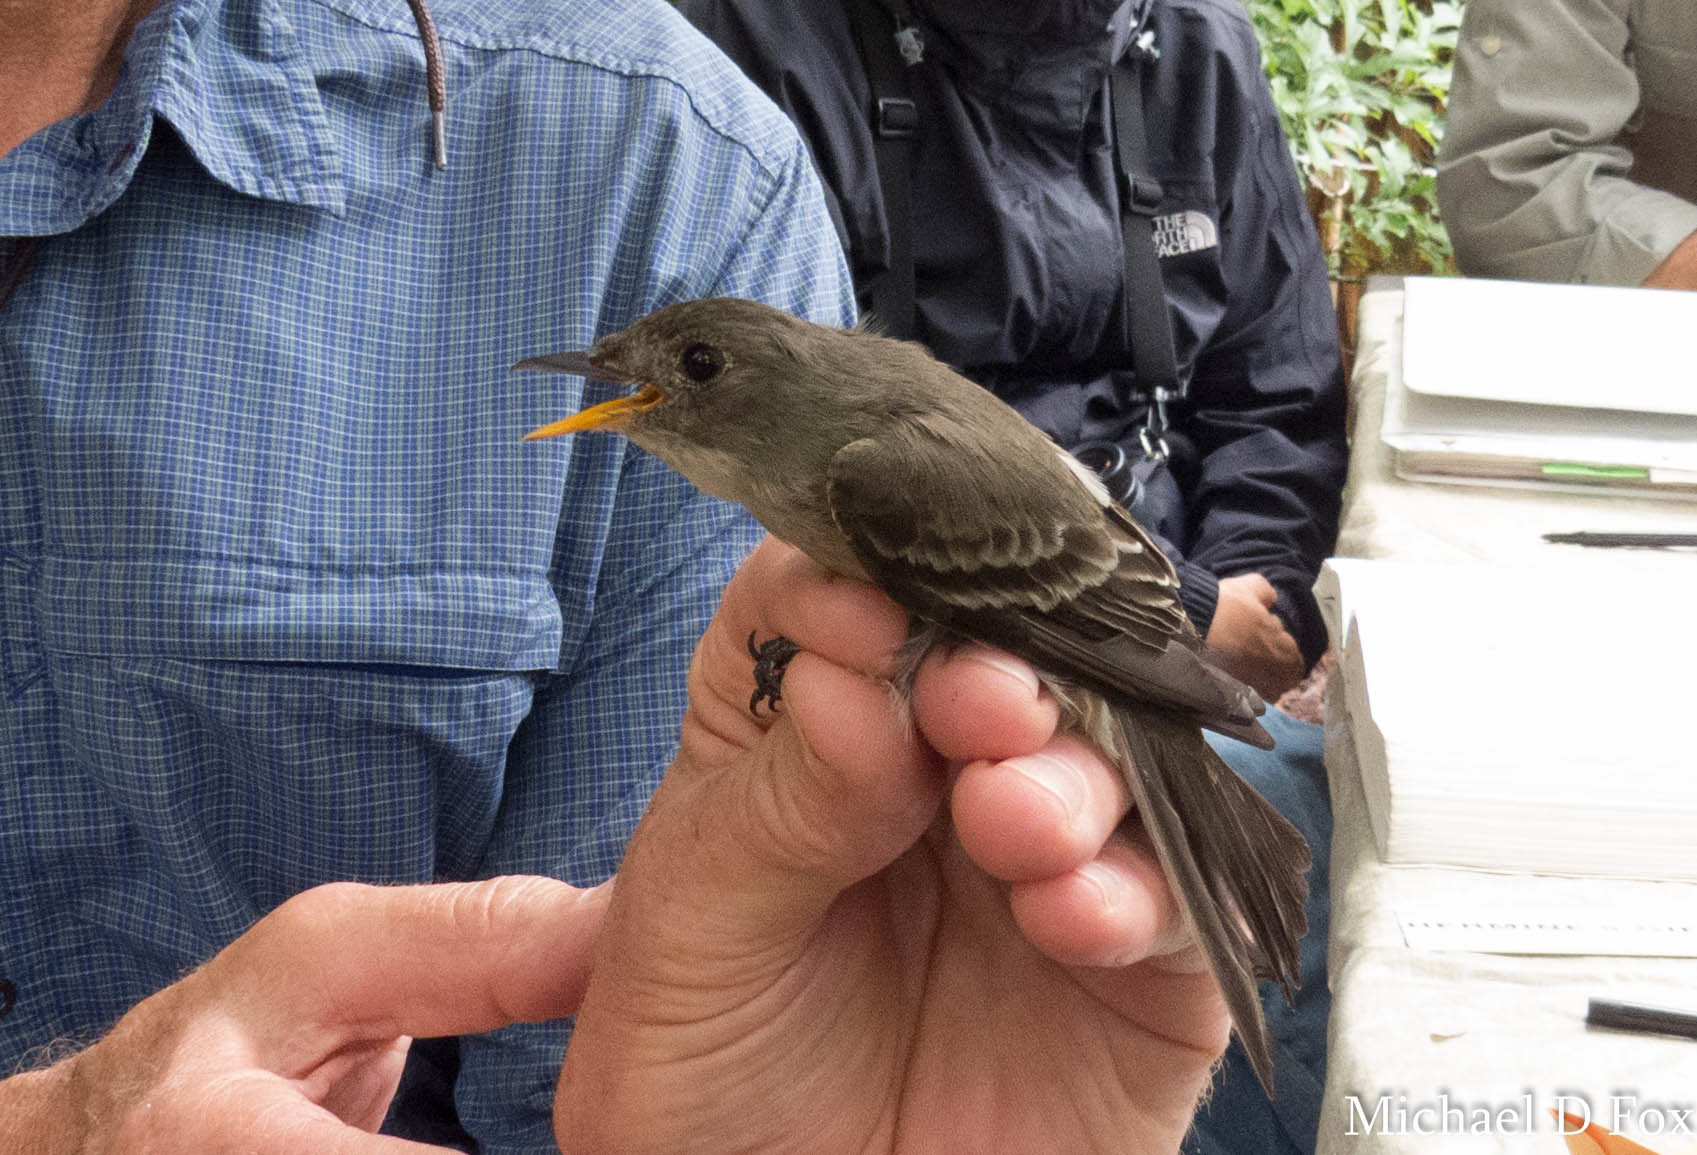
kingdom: Animalia
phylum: Chordata
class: Aves
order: Passeriformes
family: Tyrannidae
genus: Contopus
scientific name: Contopus virens
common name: Eastern wood-pewee
